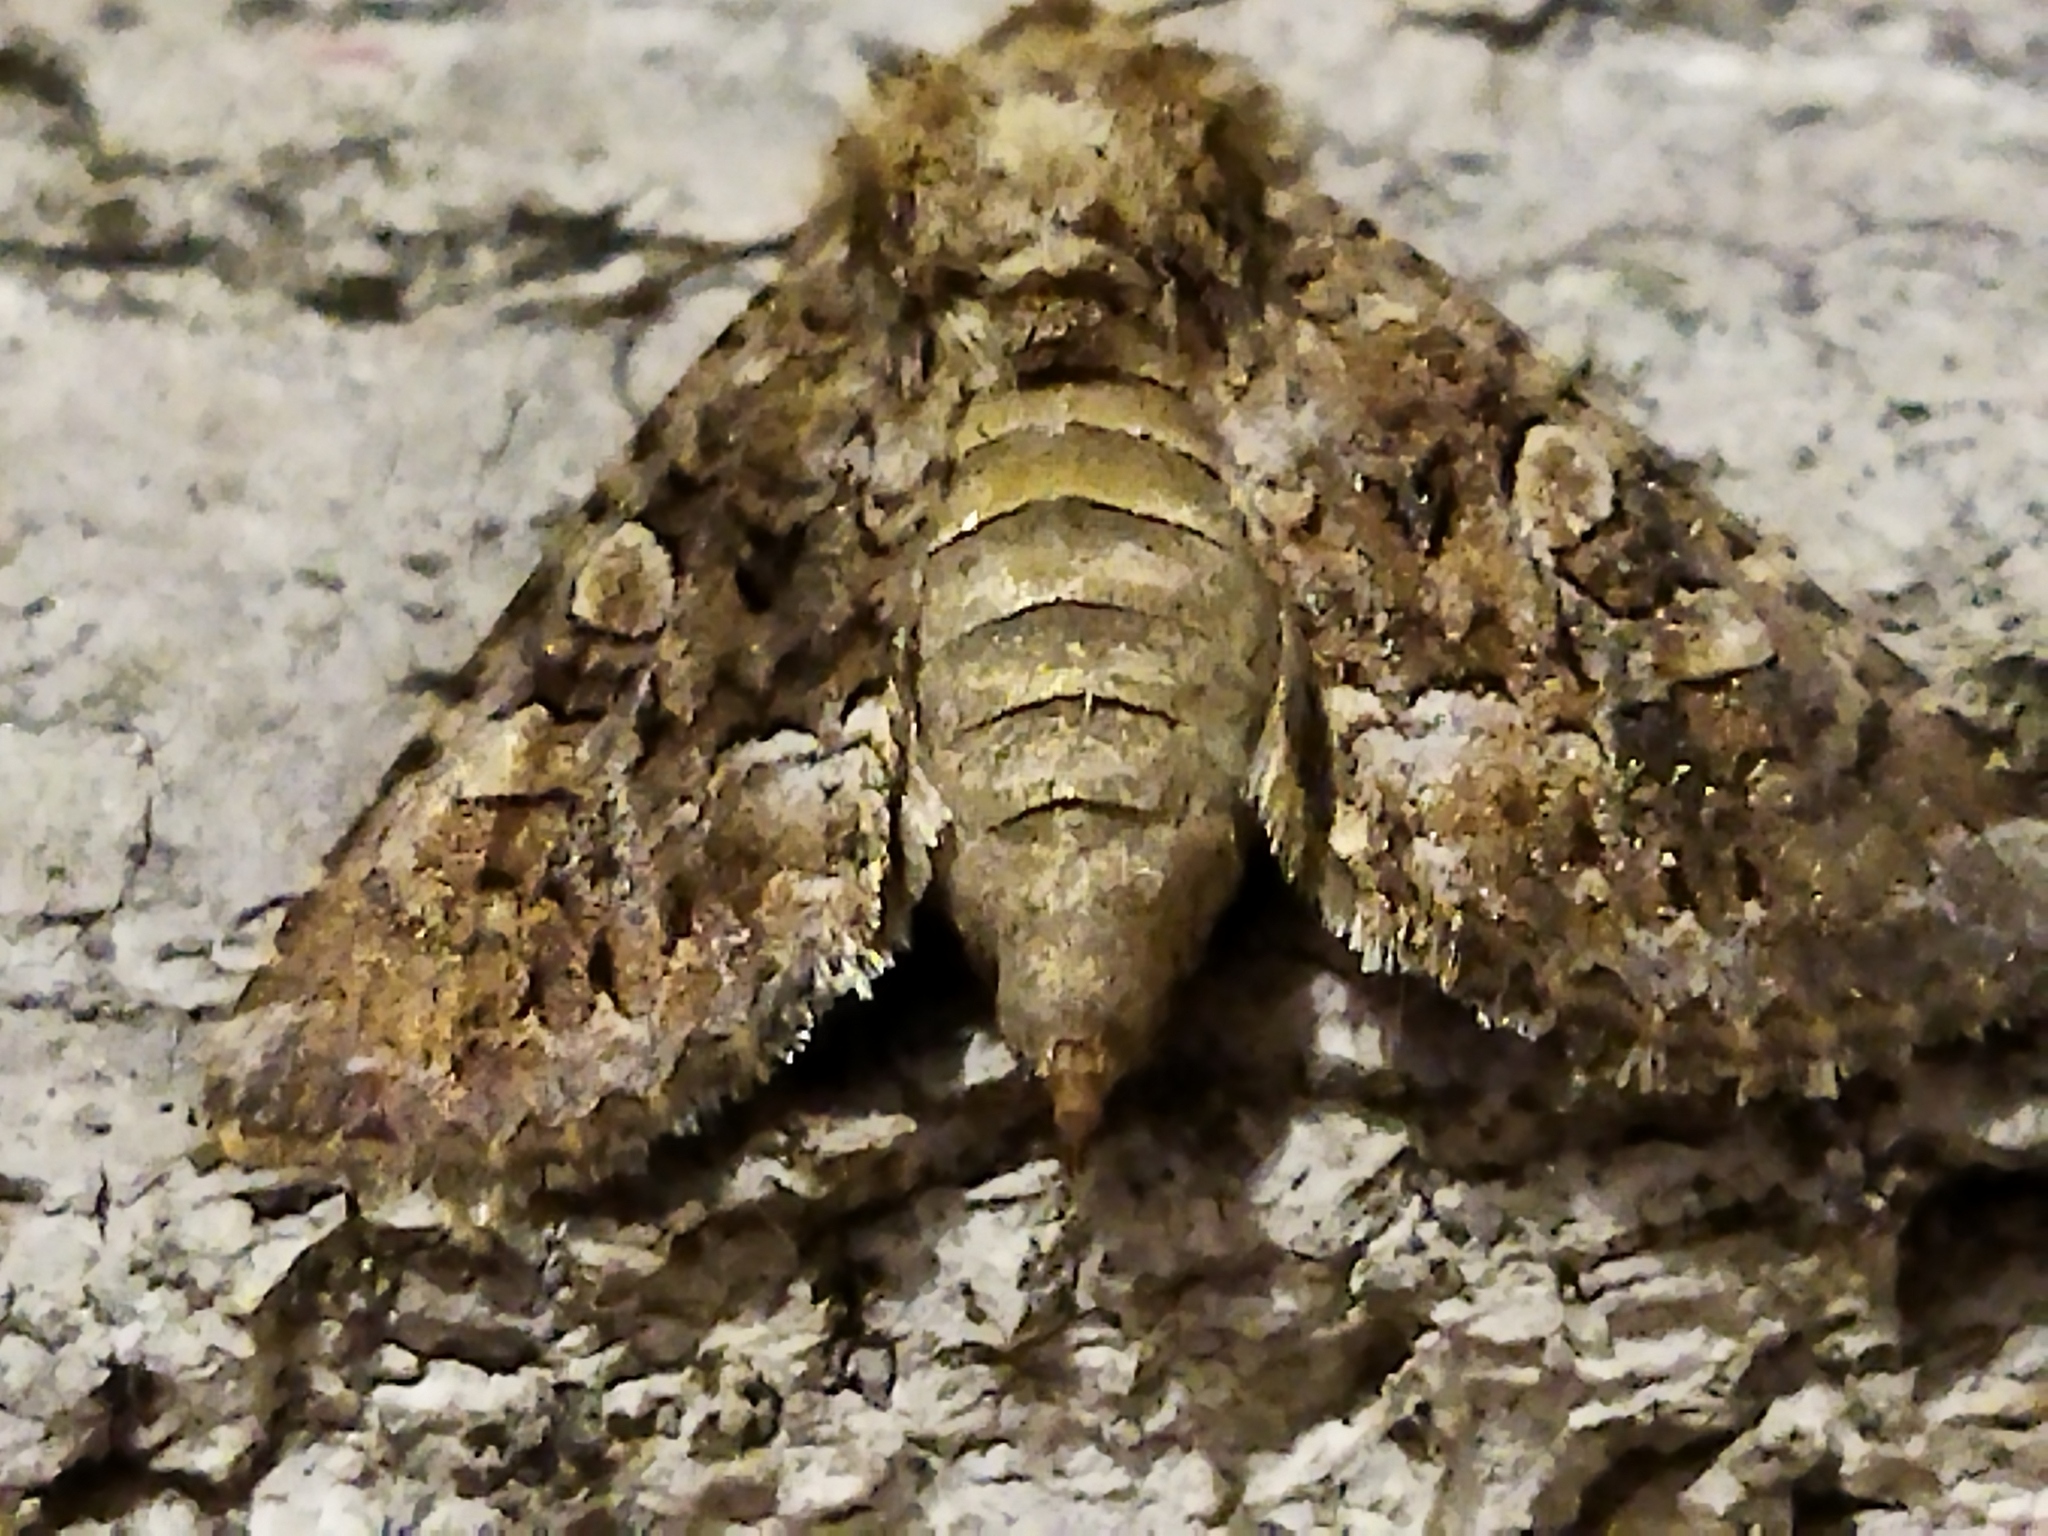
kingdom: Animalia
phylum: Arthropoda
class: Insecta
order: Lepidoptera
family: Noctuidae
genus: Hadena
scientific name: Hadena perplexa
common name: Tawny shears
